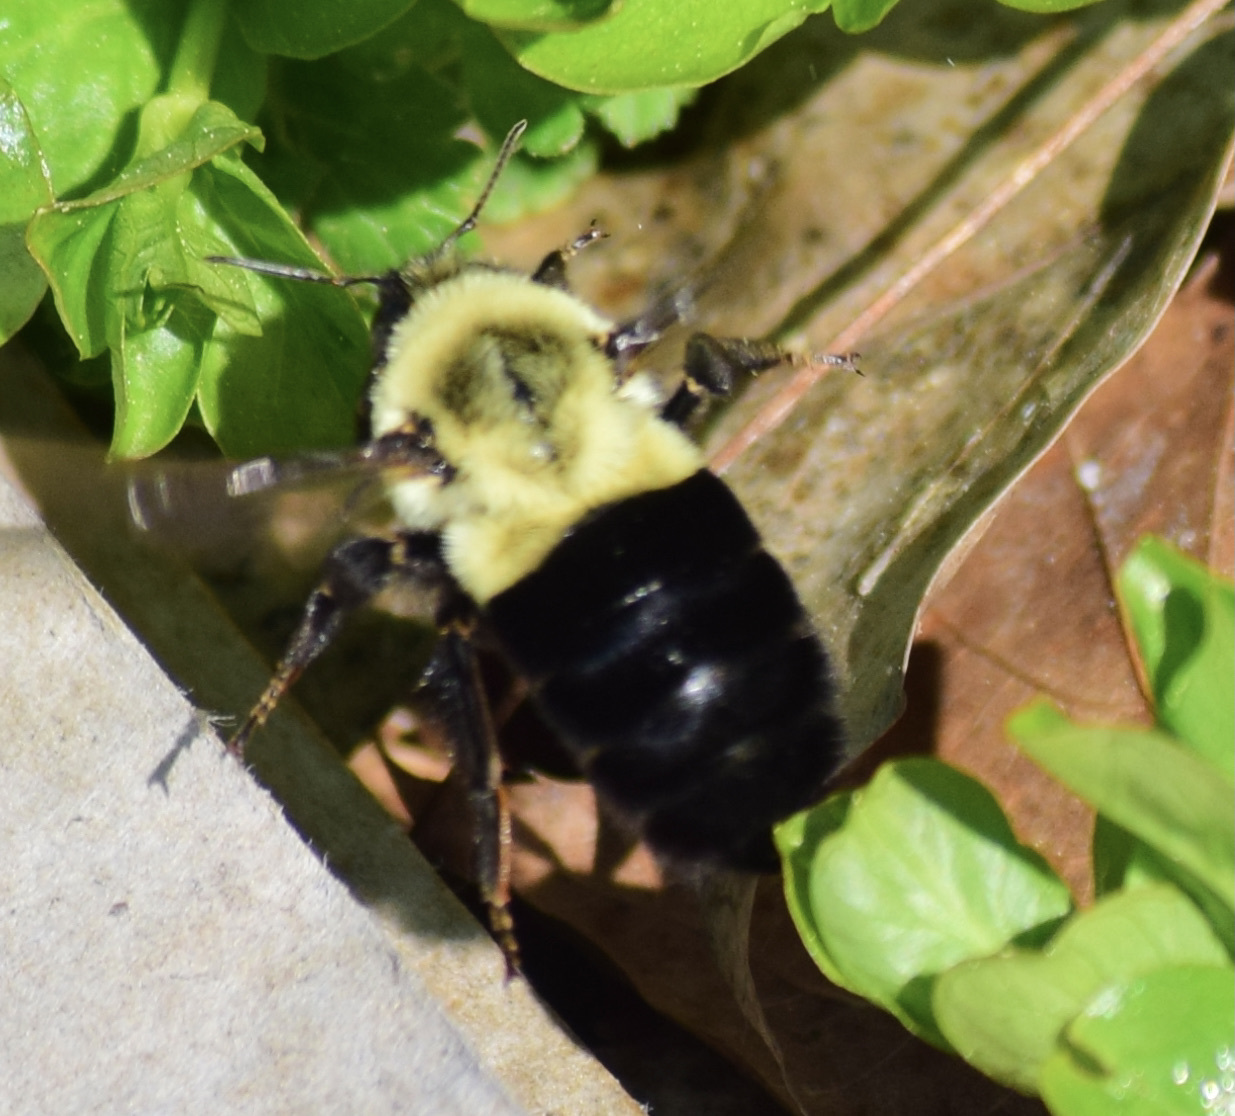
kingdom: Animalia
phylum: Arthropoda
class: Insecta
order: Hymenoptera
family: Apidae
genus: Bombus
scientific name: Bombus impatiens
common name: Common eastern bumble bee
